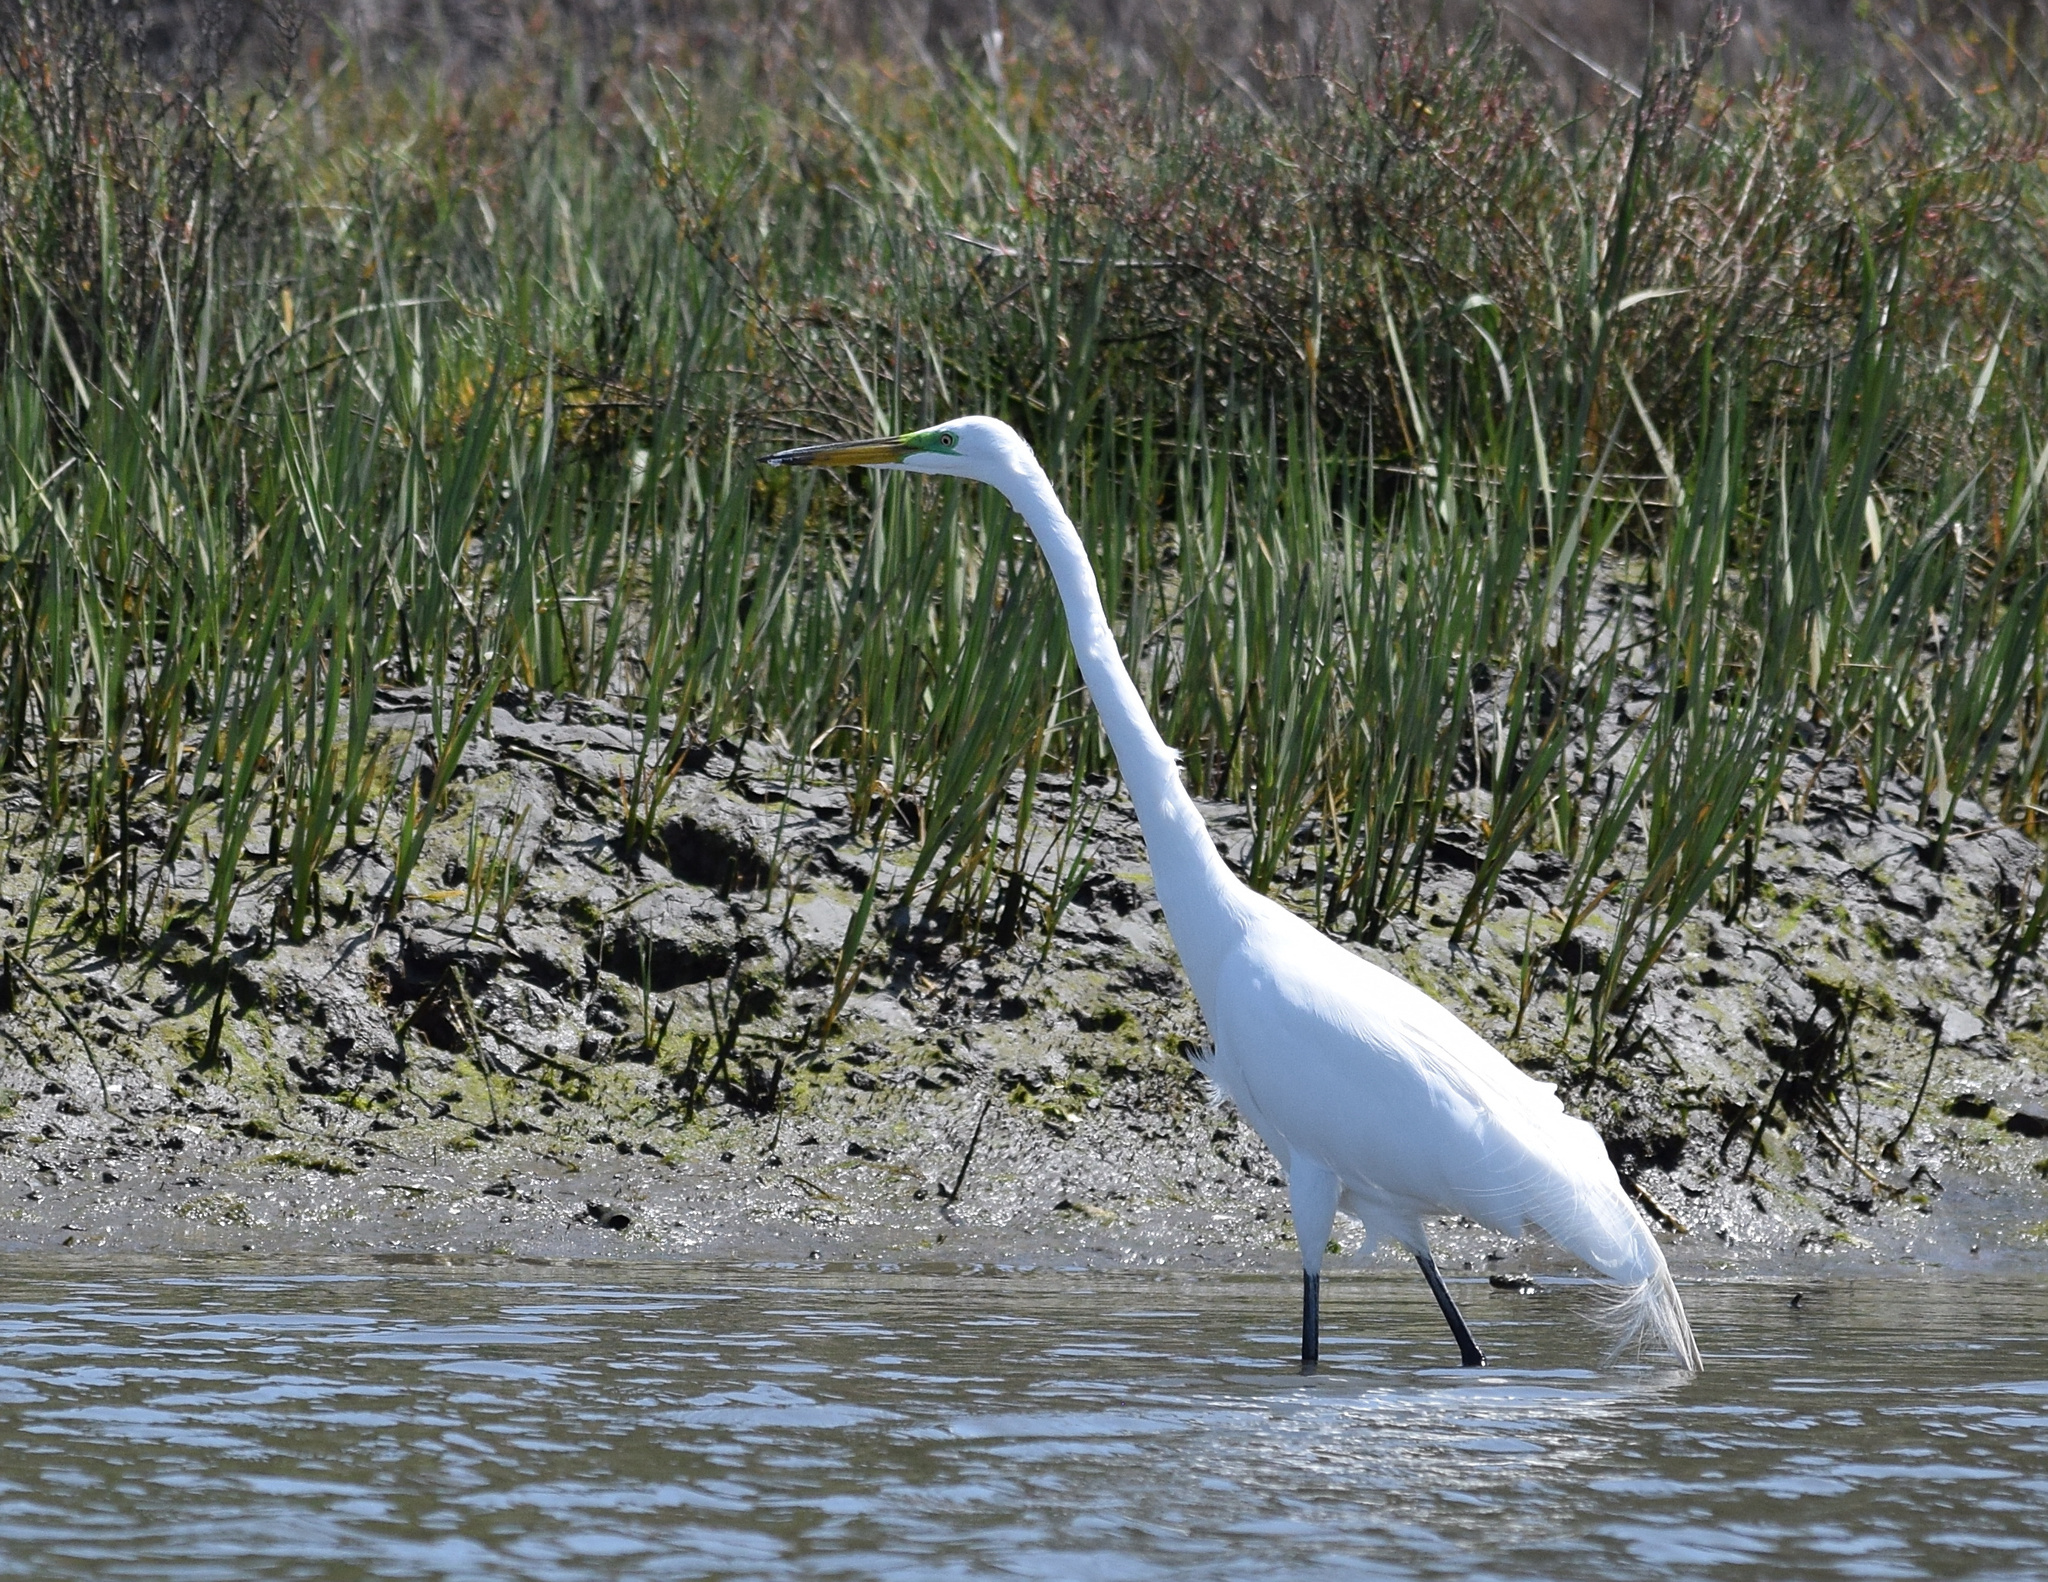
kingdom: Animalia
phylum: Chordata
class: Aves
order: Pelecaniformes
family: Ardeidae
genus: Ardea
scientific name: Ardea alba
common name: Great egret
